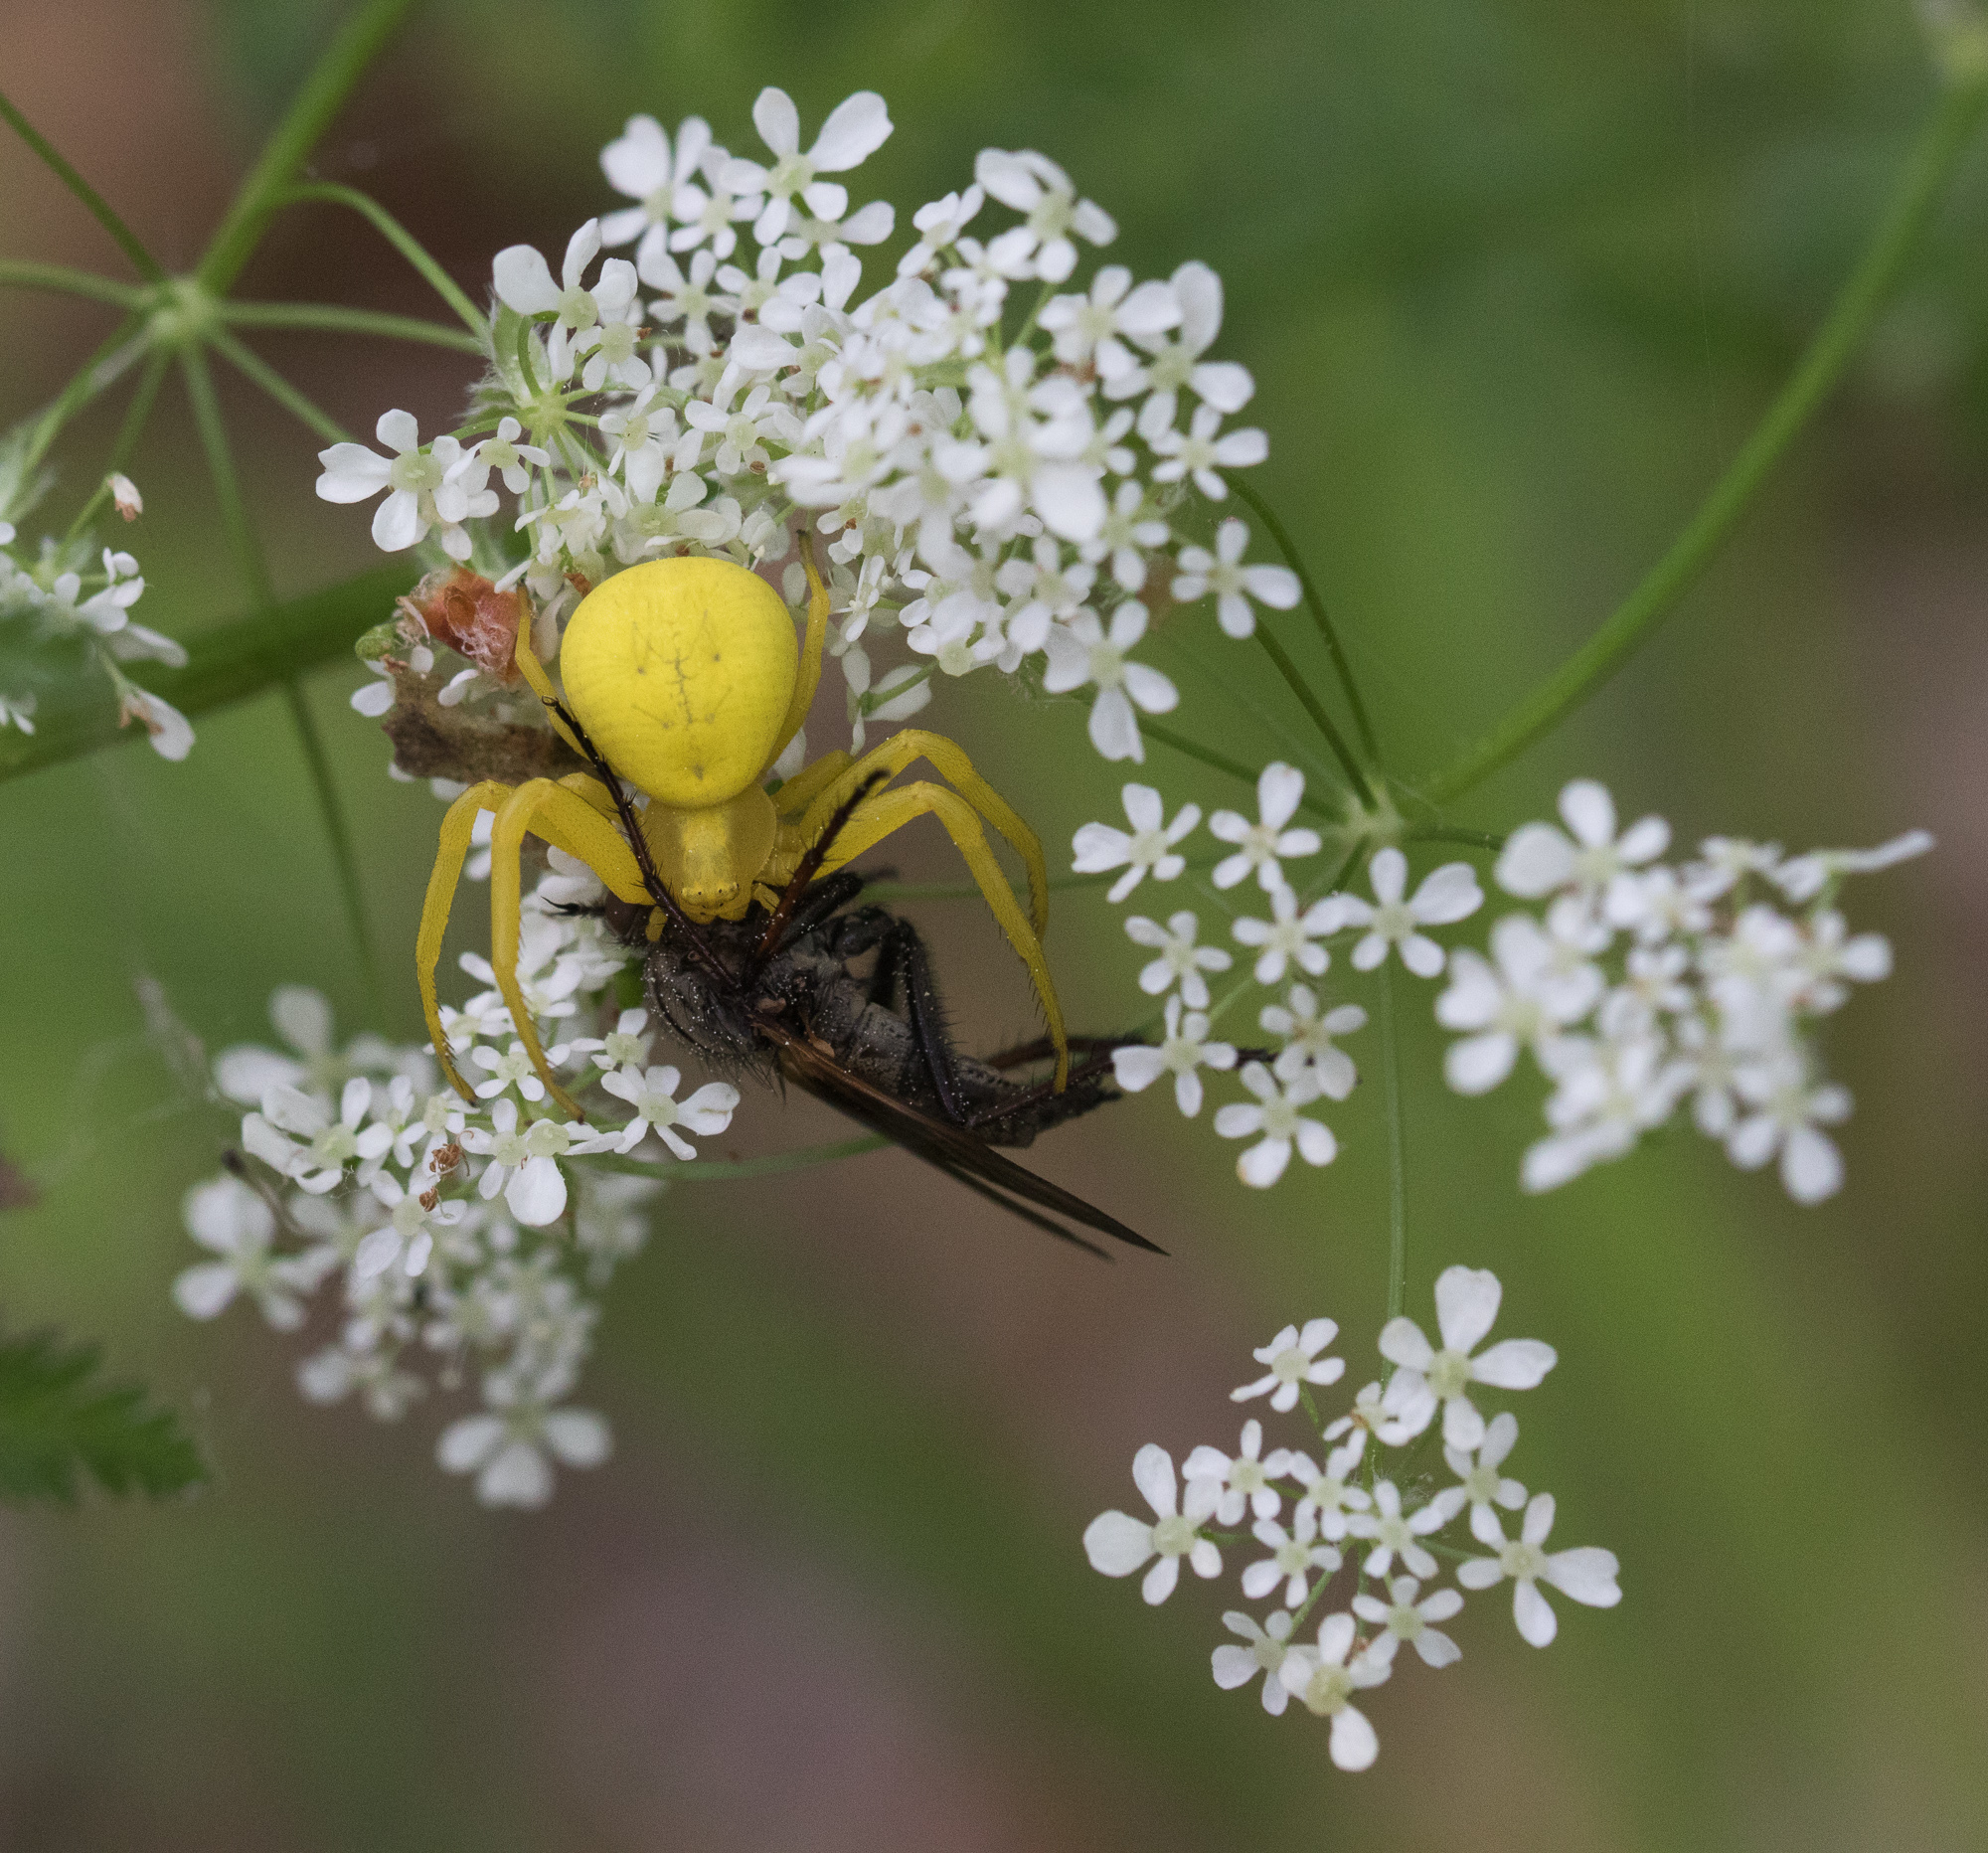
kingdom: Animalia
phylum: Arthropoda
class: Arachnida
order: Araneae
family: Thomisidae
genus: Misumena
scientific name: Misumena vatia
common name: Goldenrod crab spider
